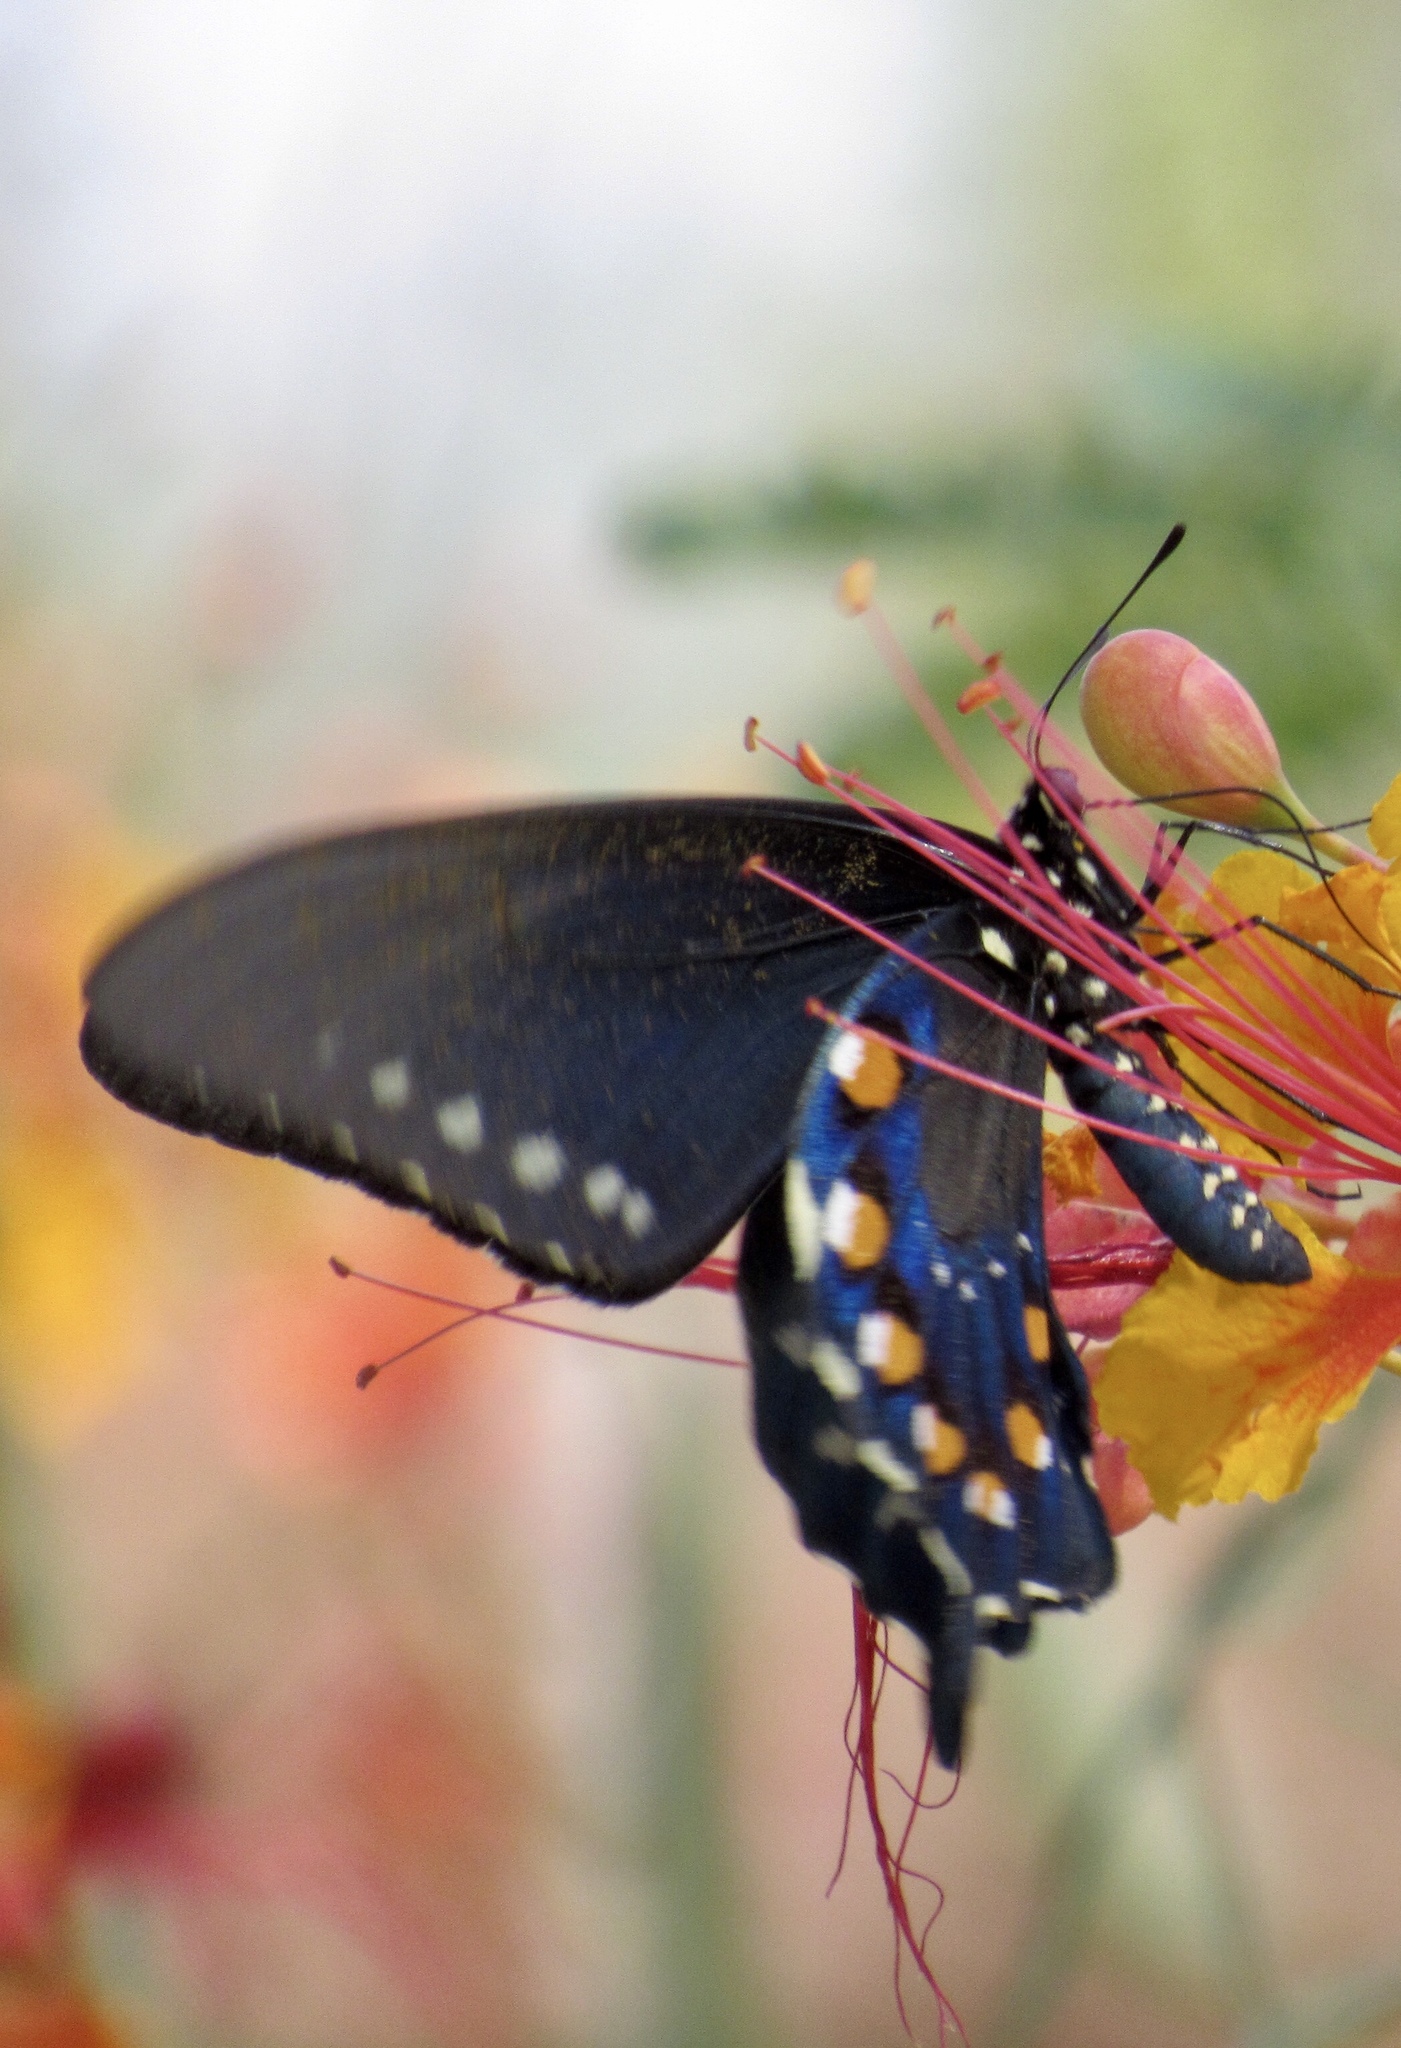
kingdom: Animalia
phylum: Arthropoda
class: Insecta
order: Lepidoptera
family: Papilionidae
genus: Battus
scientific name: Battus philenor
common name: Pipevine swallowtail
